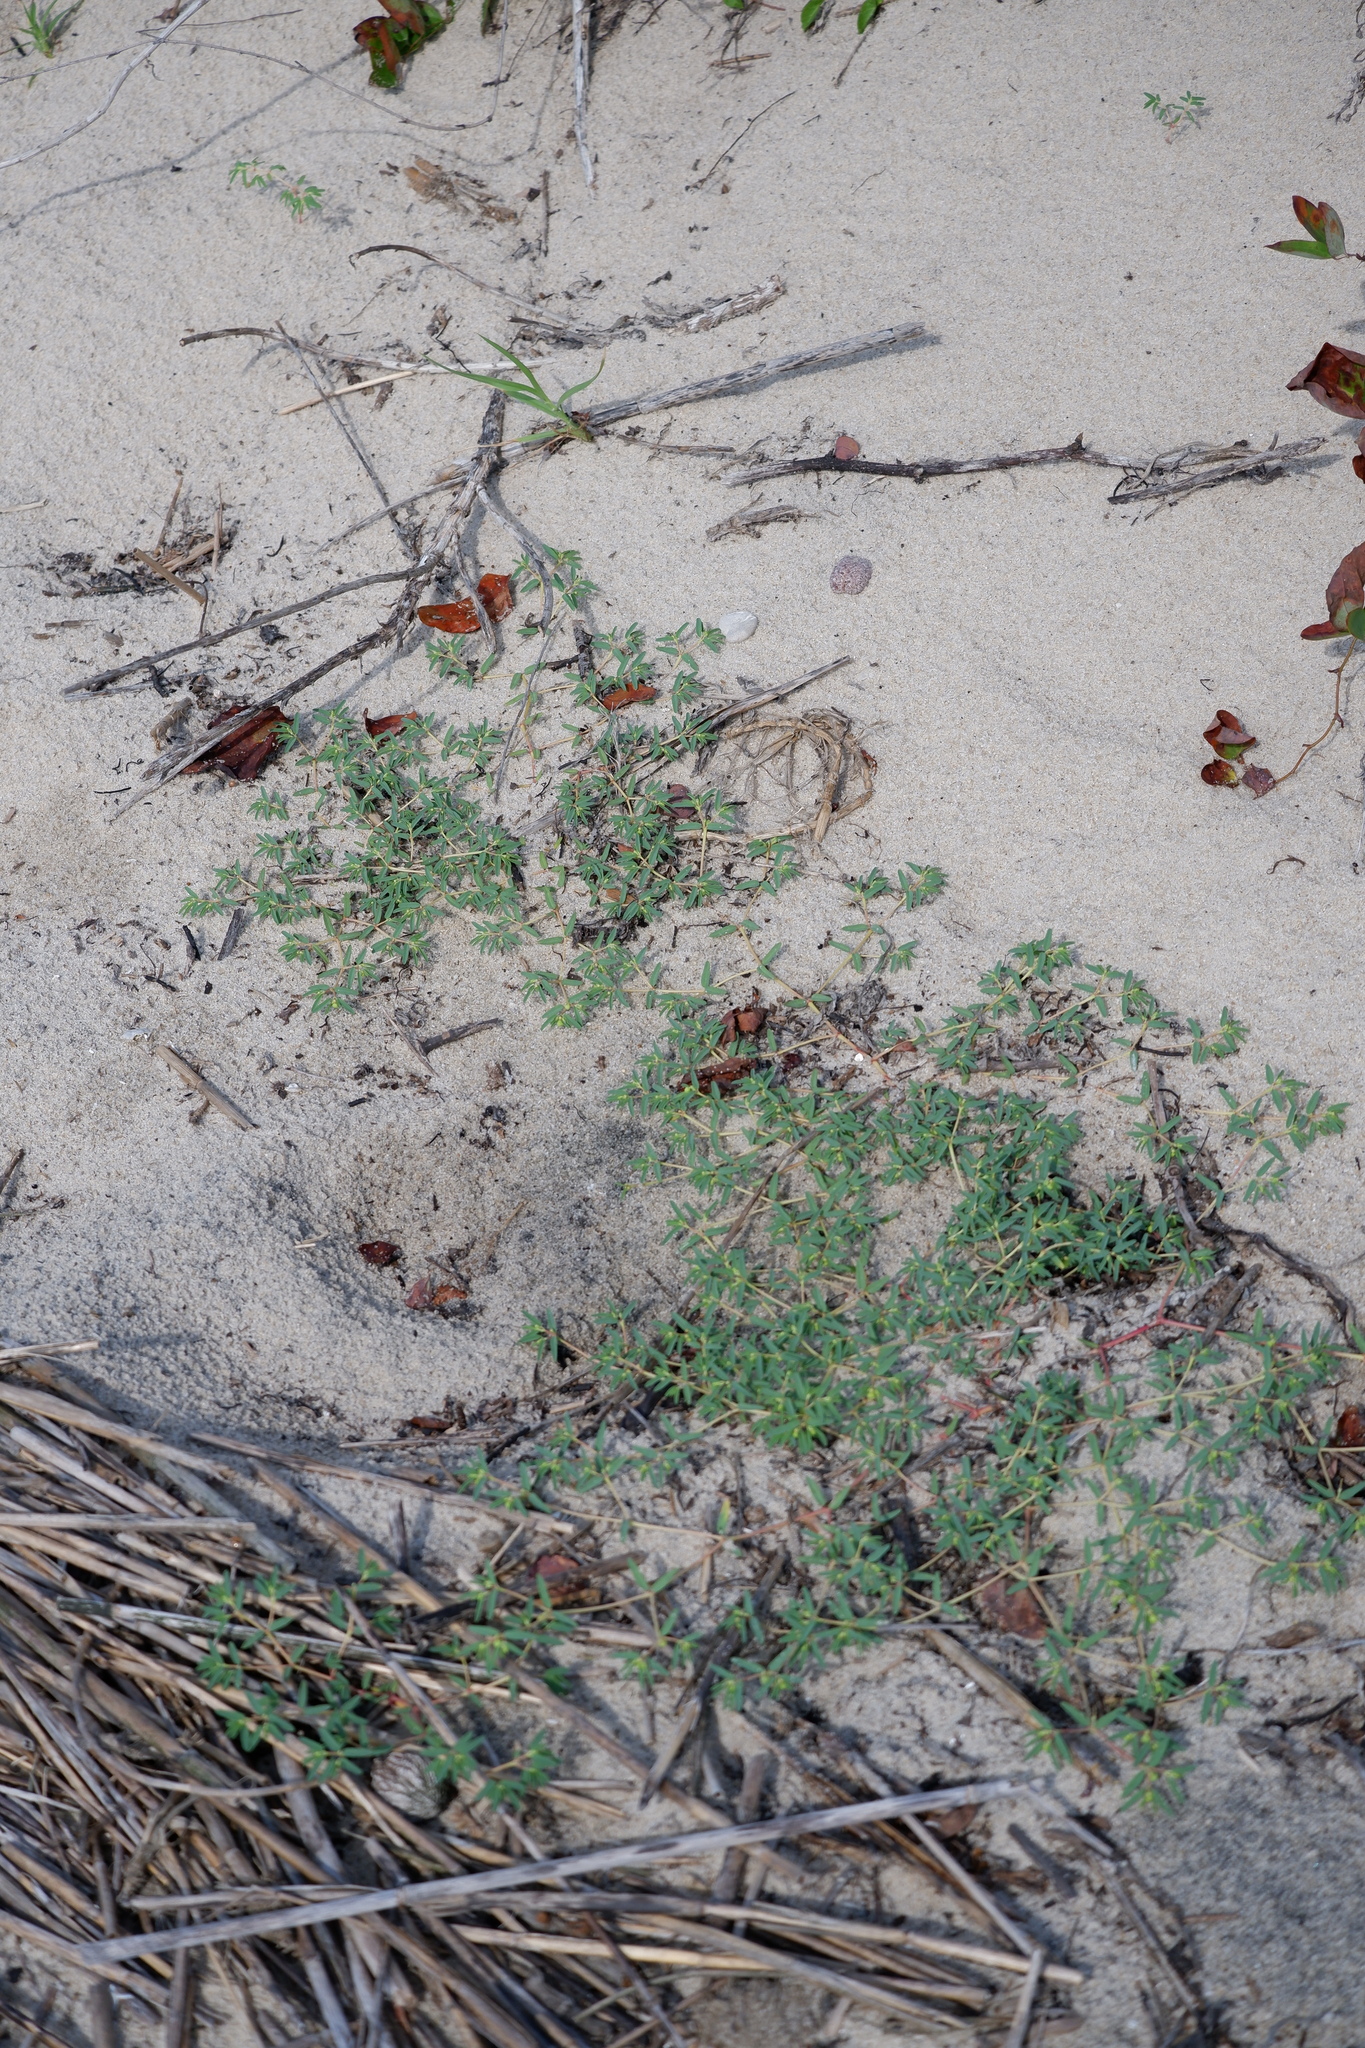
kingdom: Plantae
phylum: Tracheophyta
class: Magnoliopsida
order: Malpighiales
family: Euphorbiaceae
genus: Euphorbia
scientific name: Euphorbia polygonifolia
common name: Knotweed spurge
